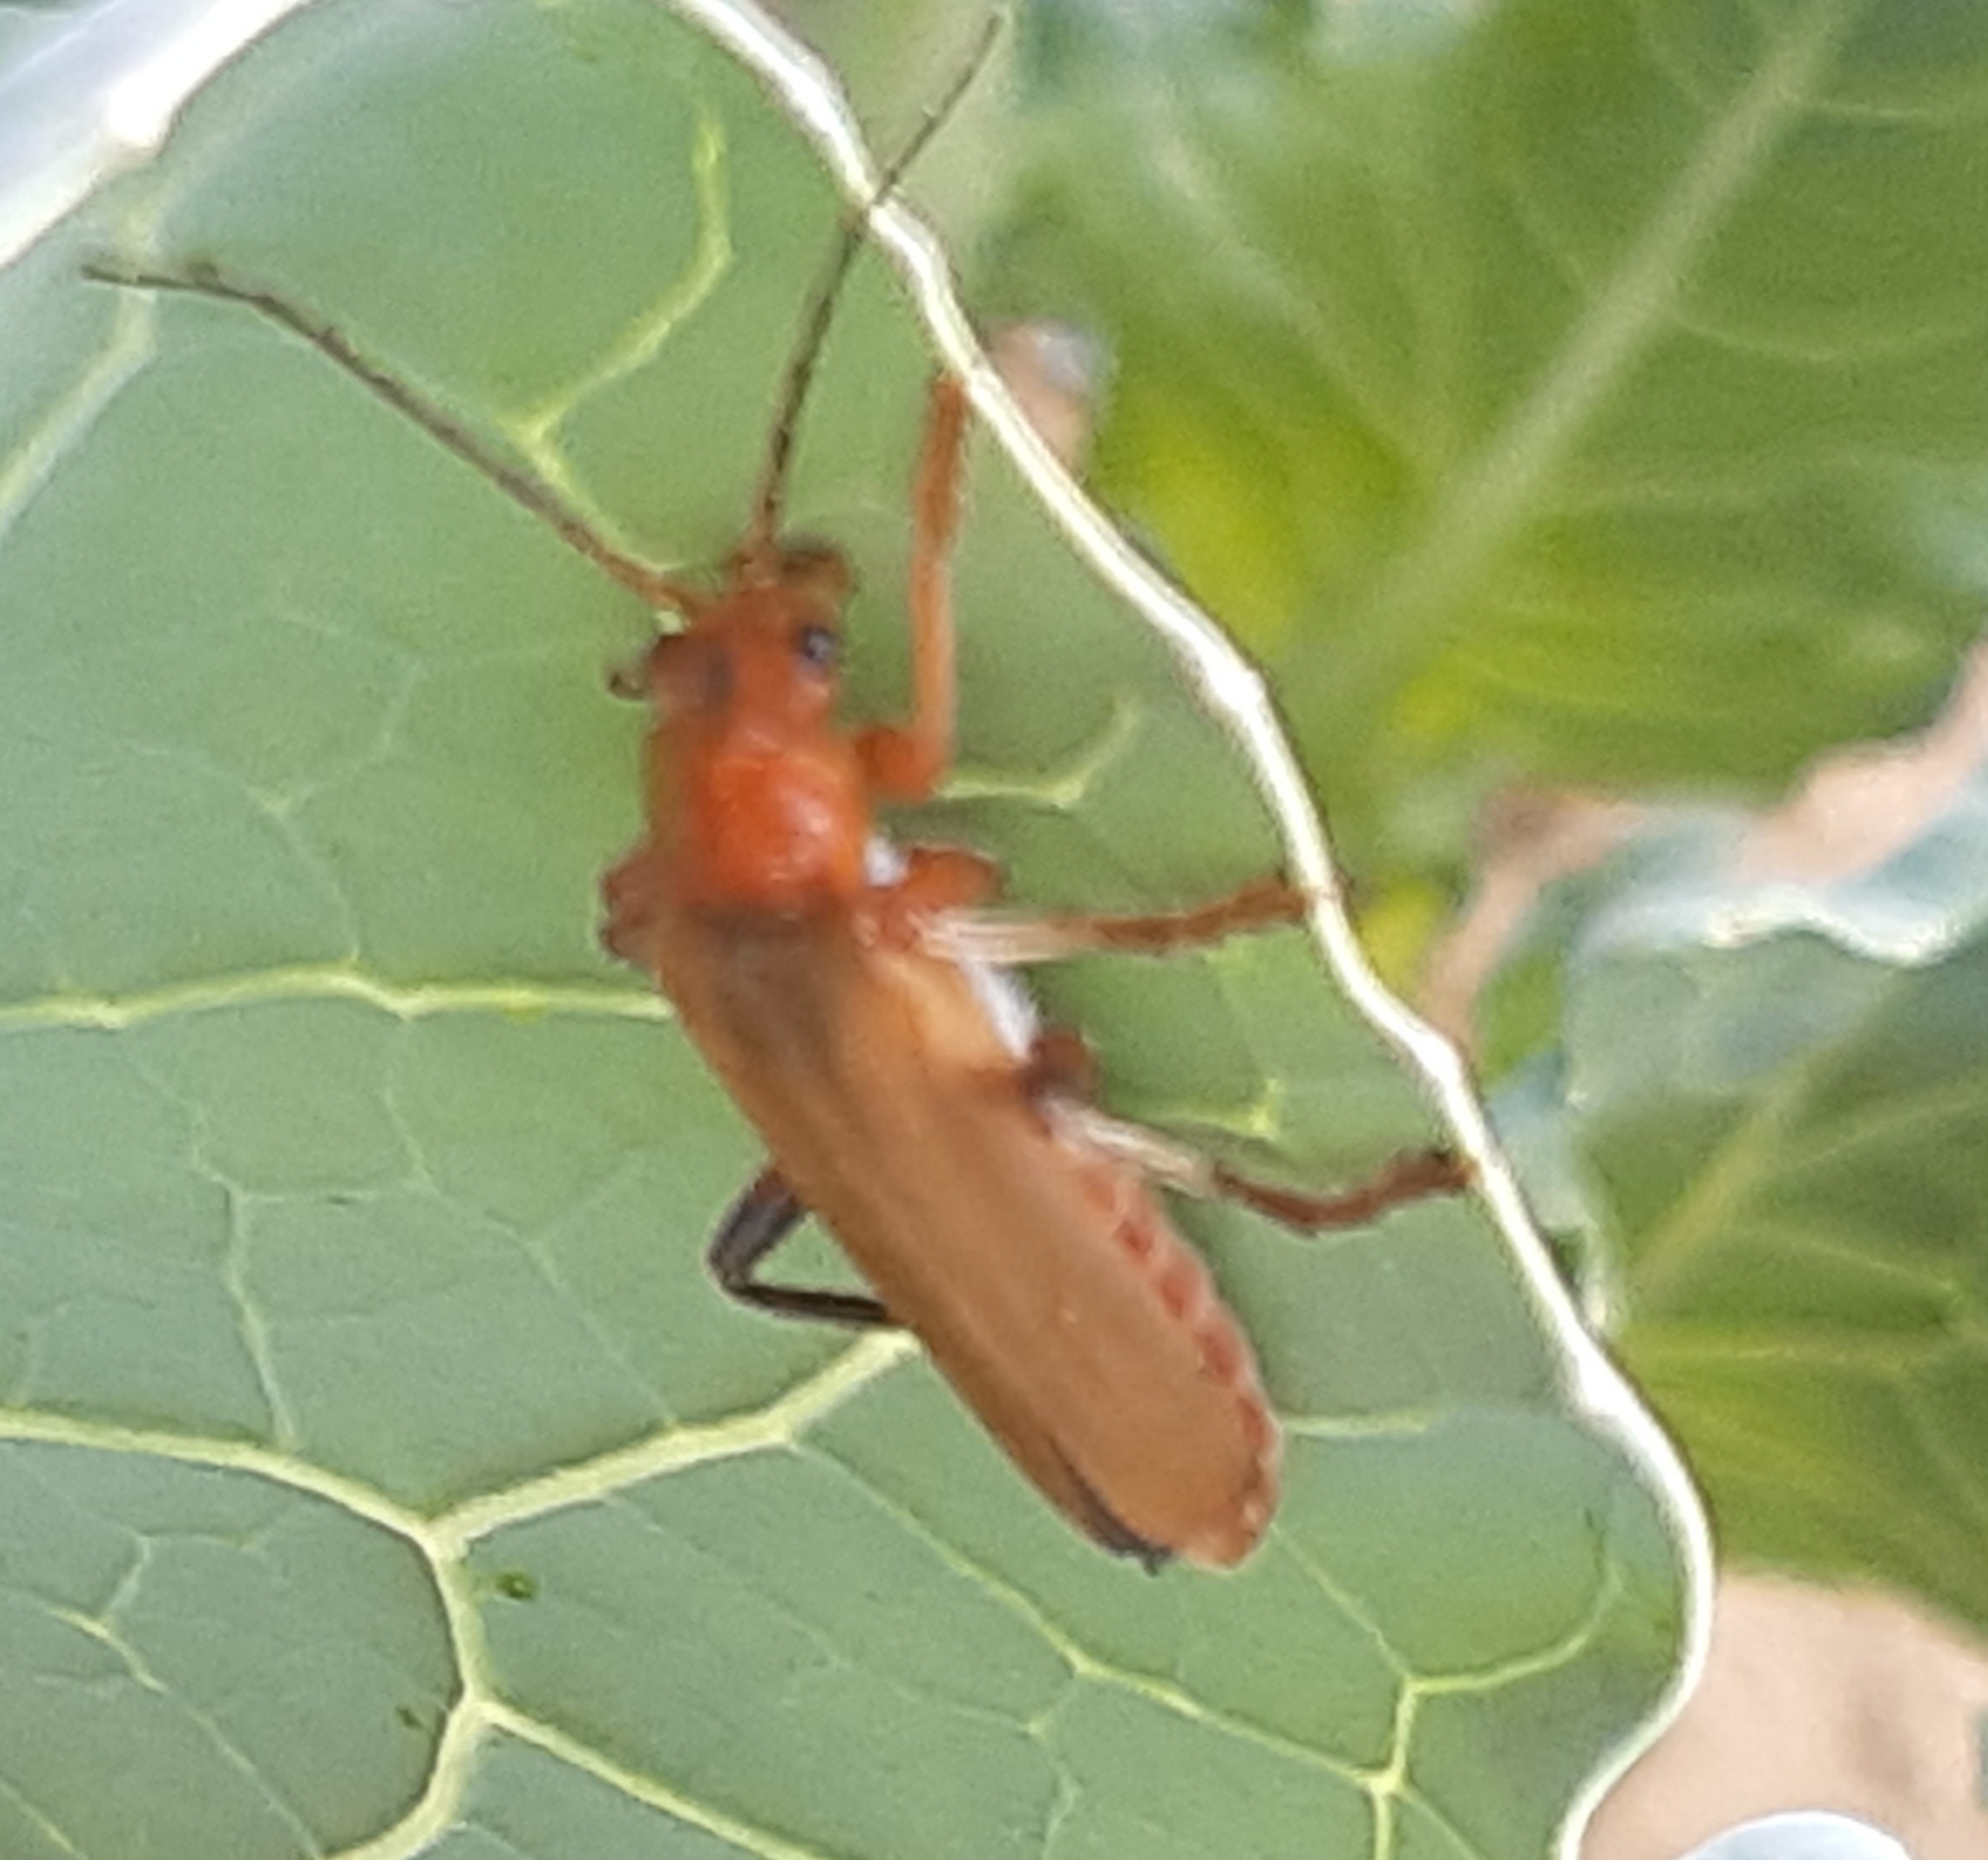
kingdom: Animalia
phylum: Arthropoda
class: Insecta
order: Coleoptera
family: Cantharidae
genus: Cantharis
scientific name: Cantharis livida
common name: Livid soldier beetle
